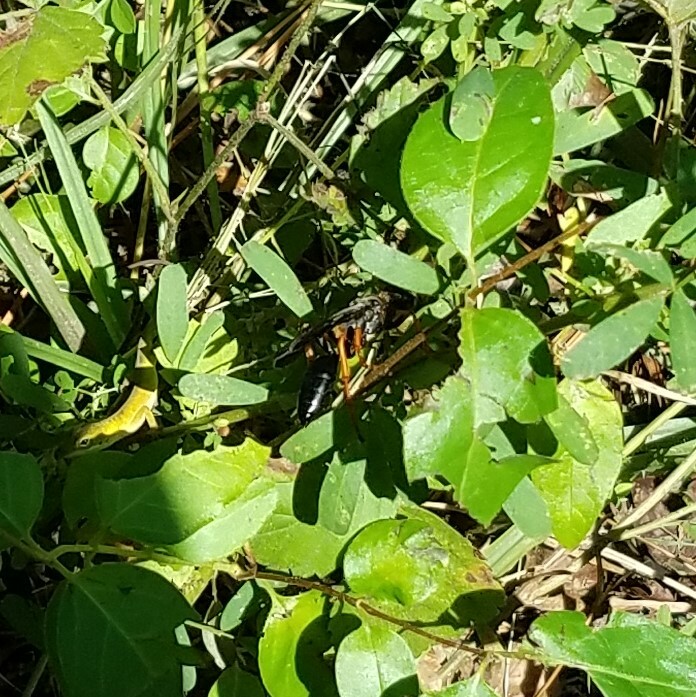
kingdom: Animalia
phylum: Chordata
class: Squamata
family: Dactyloidae
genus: Anolis
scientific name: Anolis carolinensis
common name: Green anole
